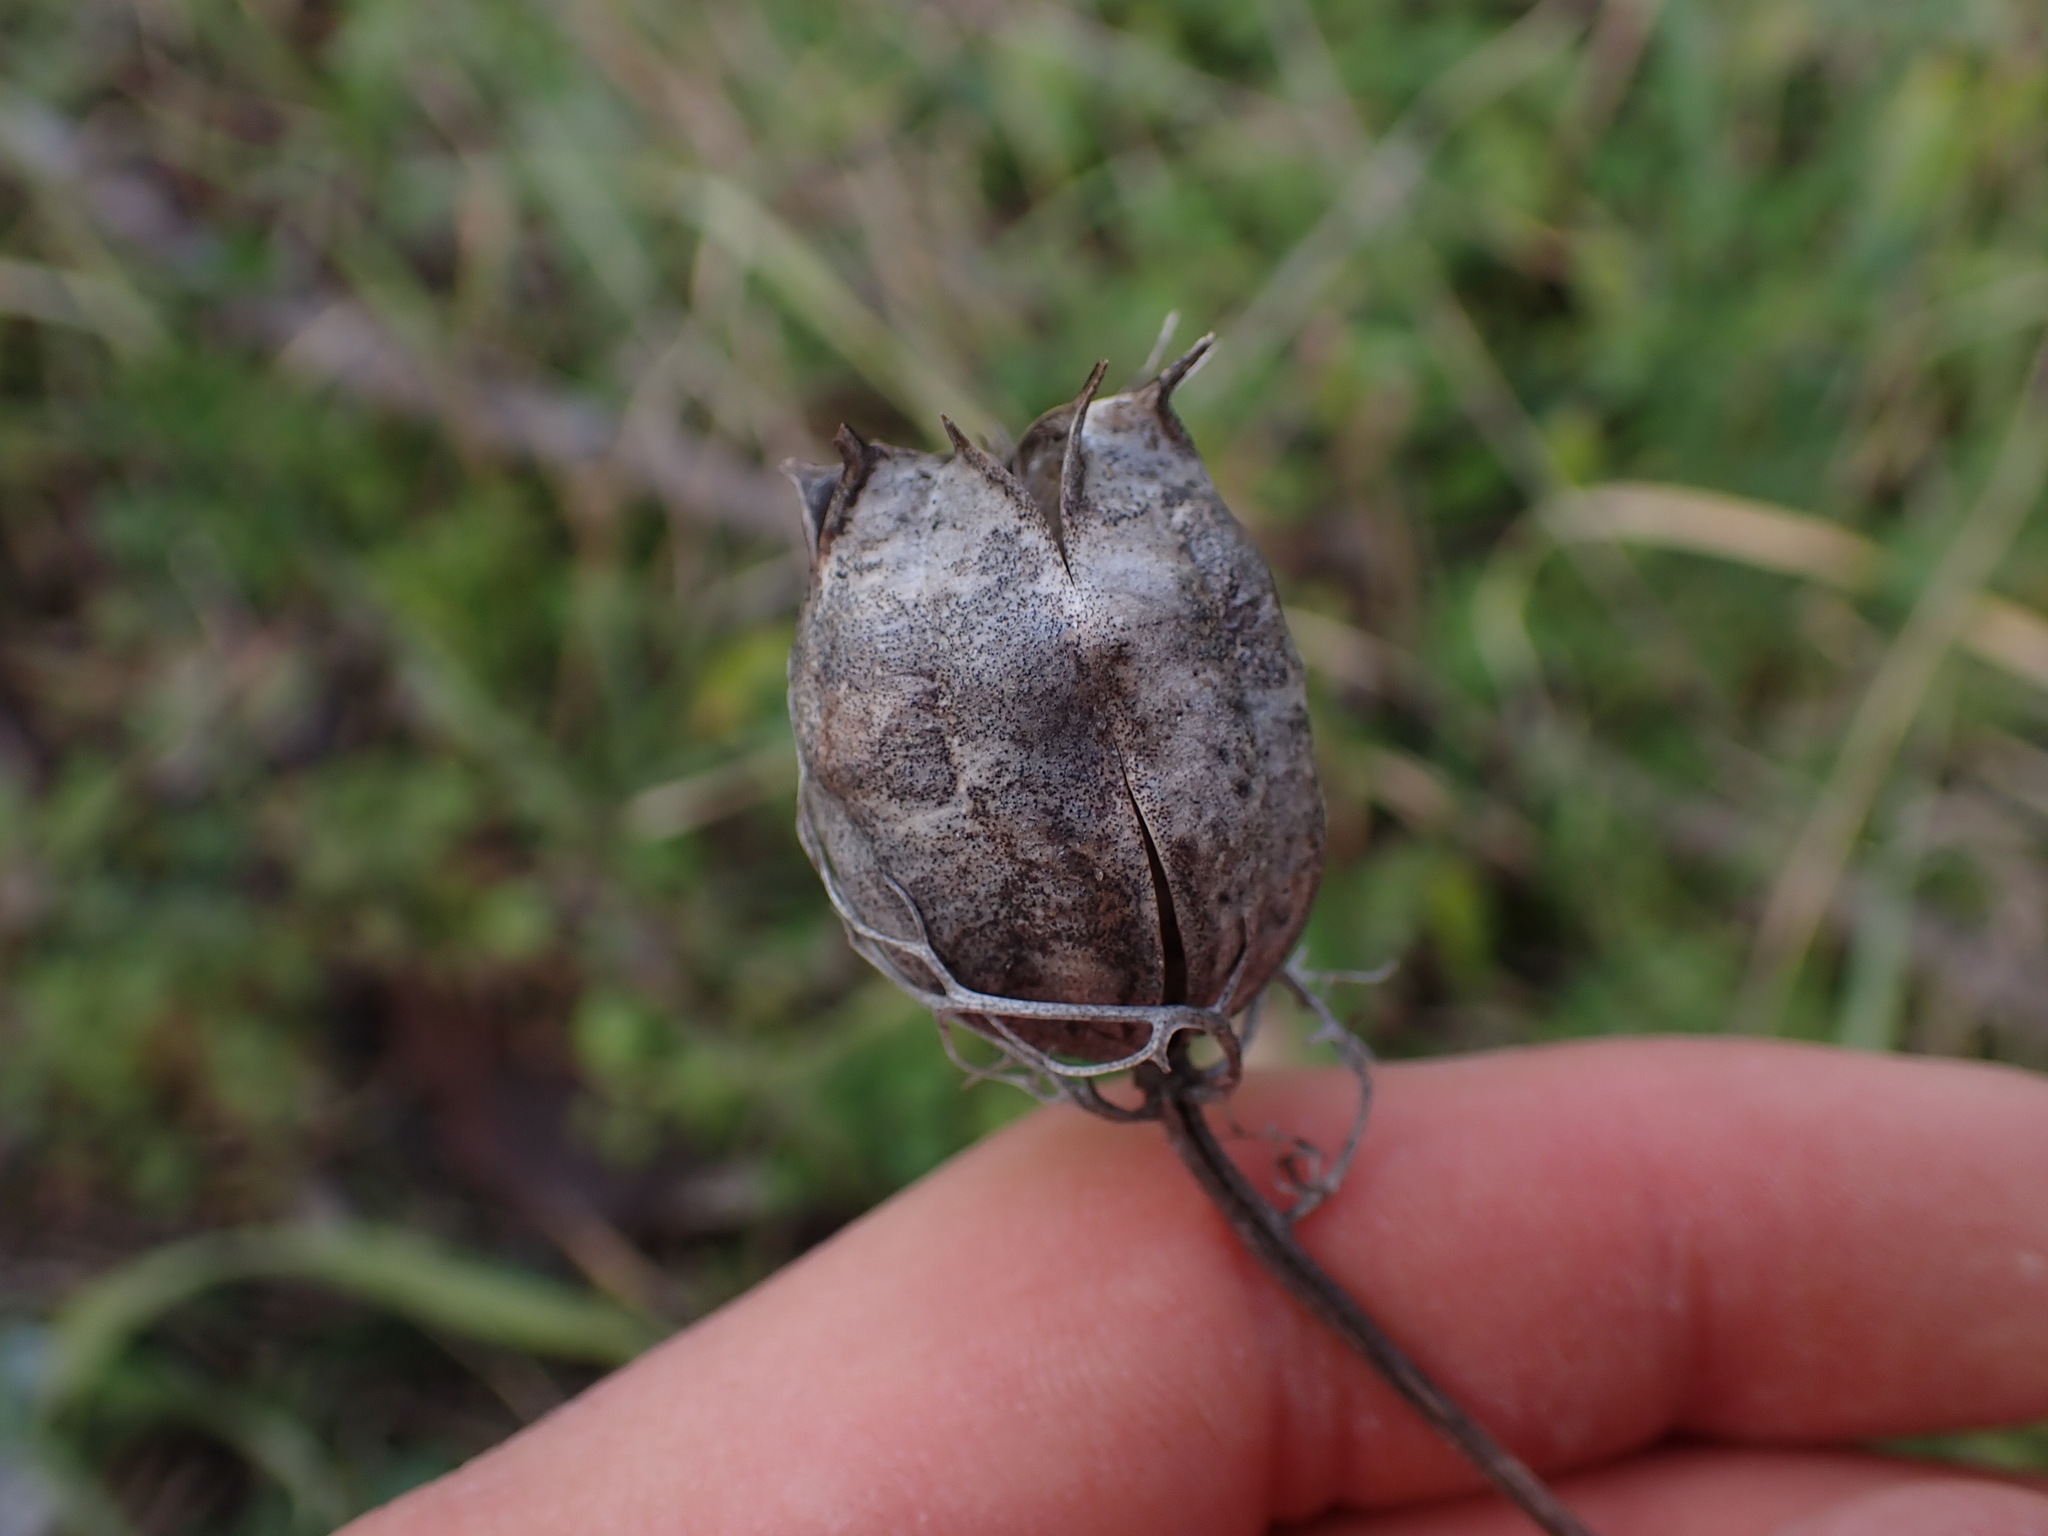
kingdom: Plantae
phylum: Tracheophyta
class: Magnoliopsida
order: Ranunculales
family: Ranunculaceae
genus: Nigella
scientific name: Nigella damascena
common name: Love-in-a-mist
